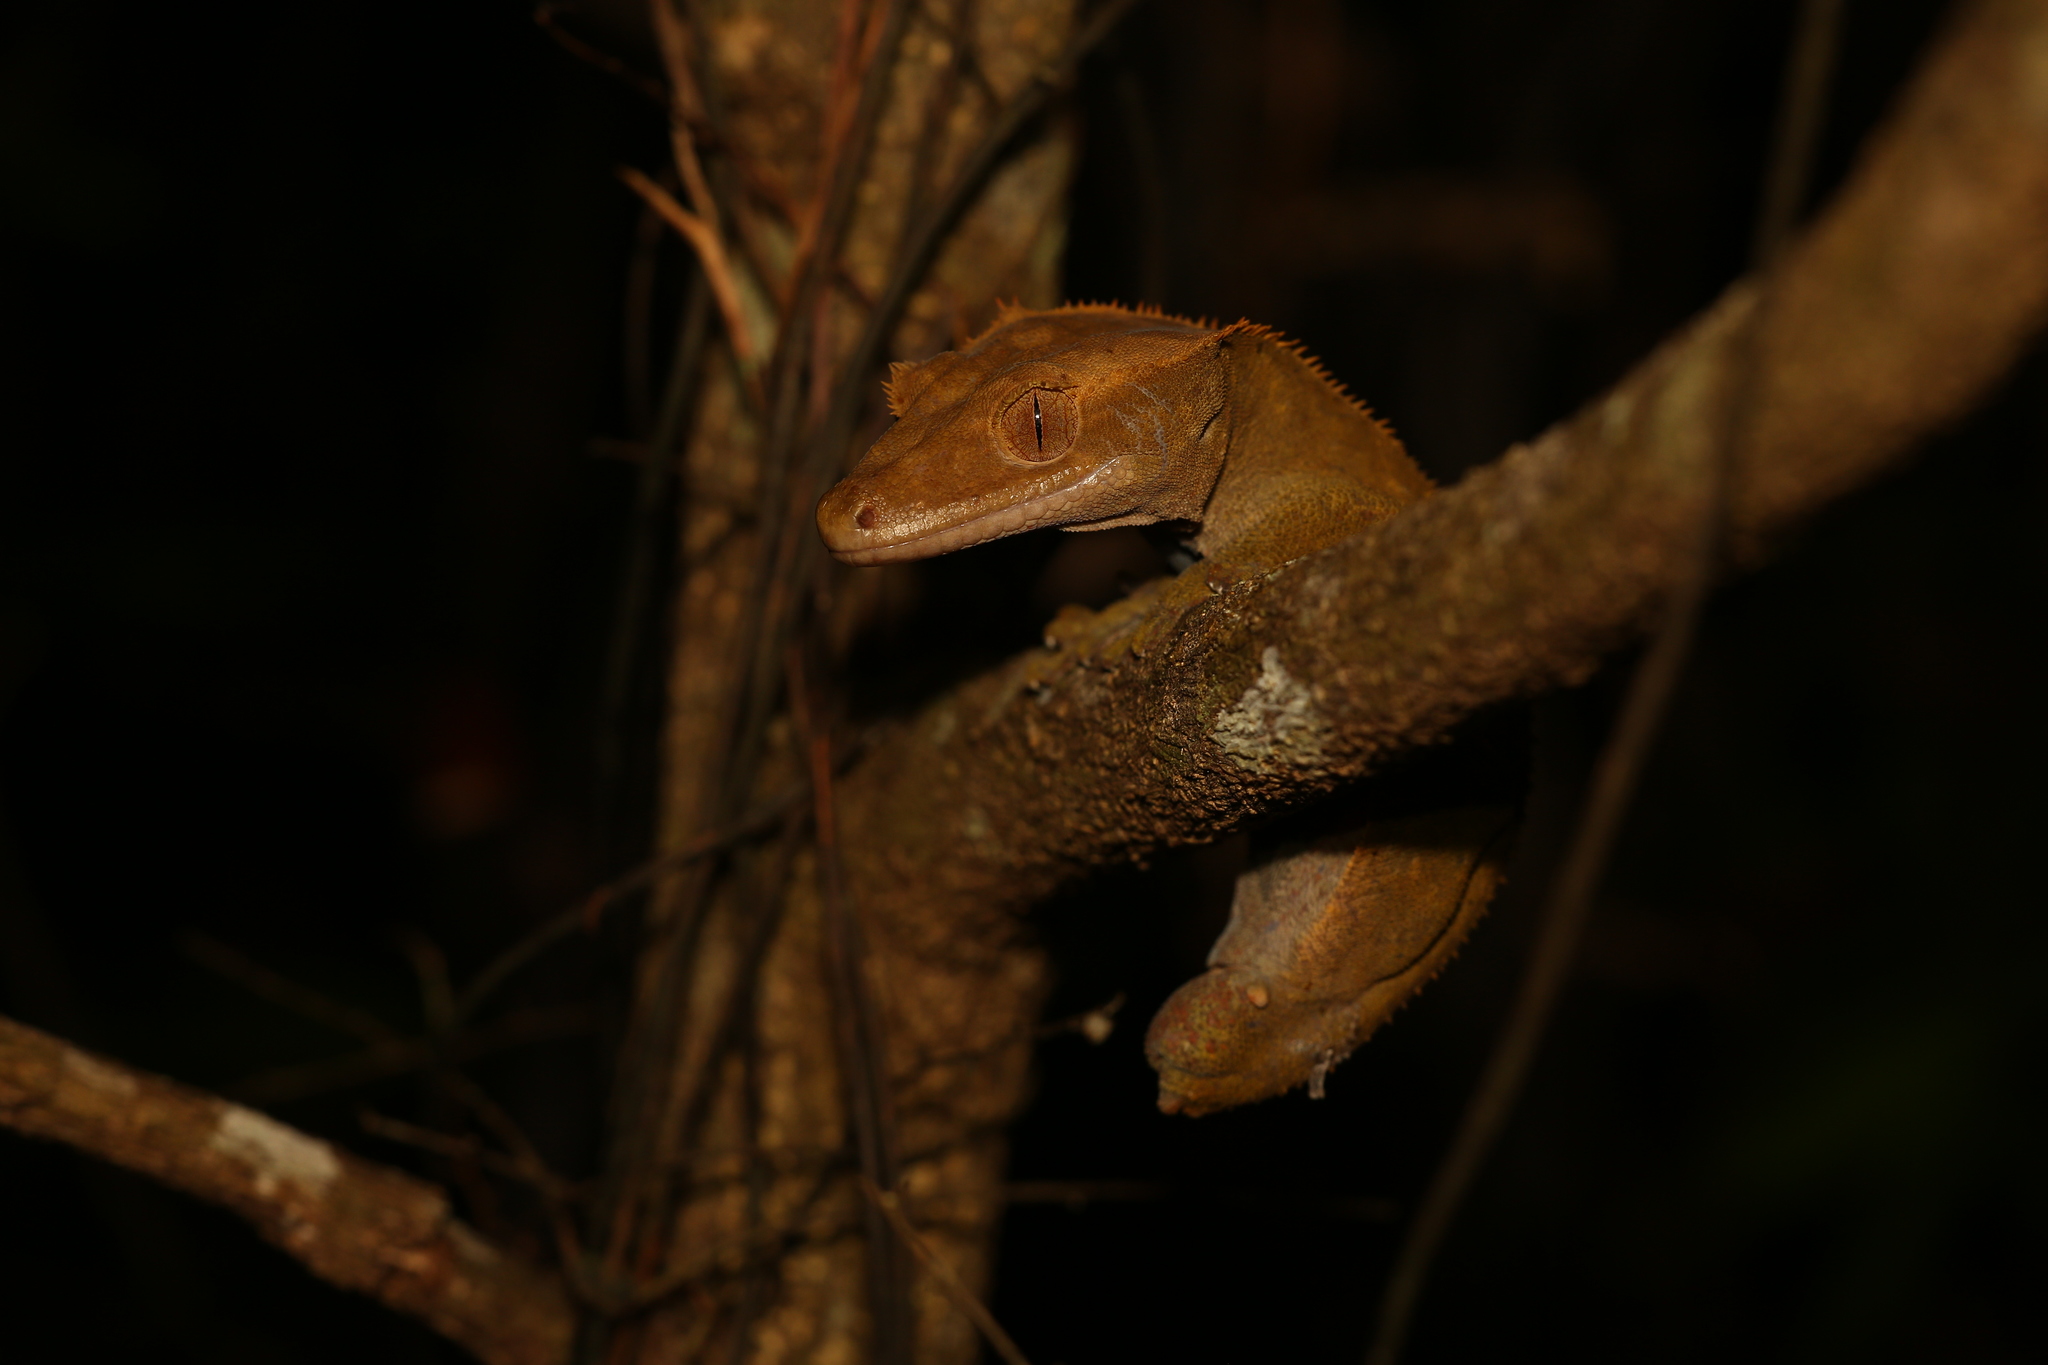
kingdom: Animalia
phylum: Chordata
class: Squamata
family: Diplodactylidae
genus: Correlophus
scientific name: Correlophus ciliatus
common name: Crested gecko
